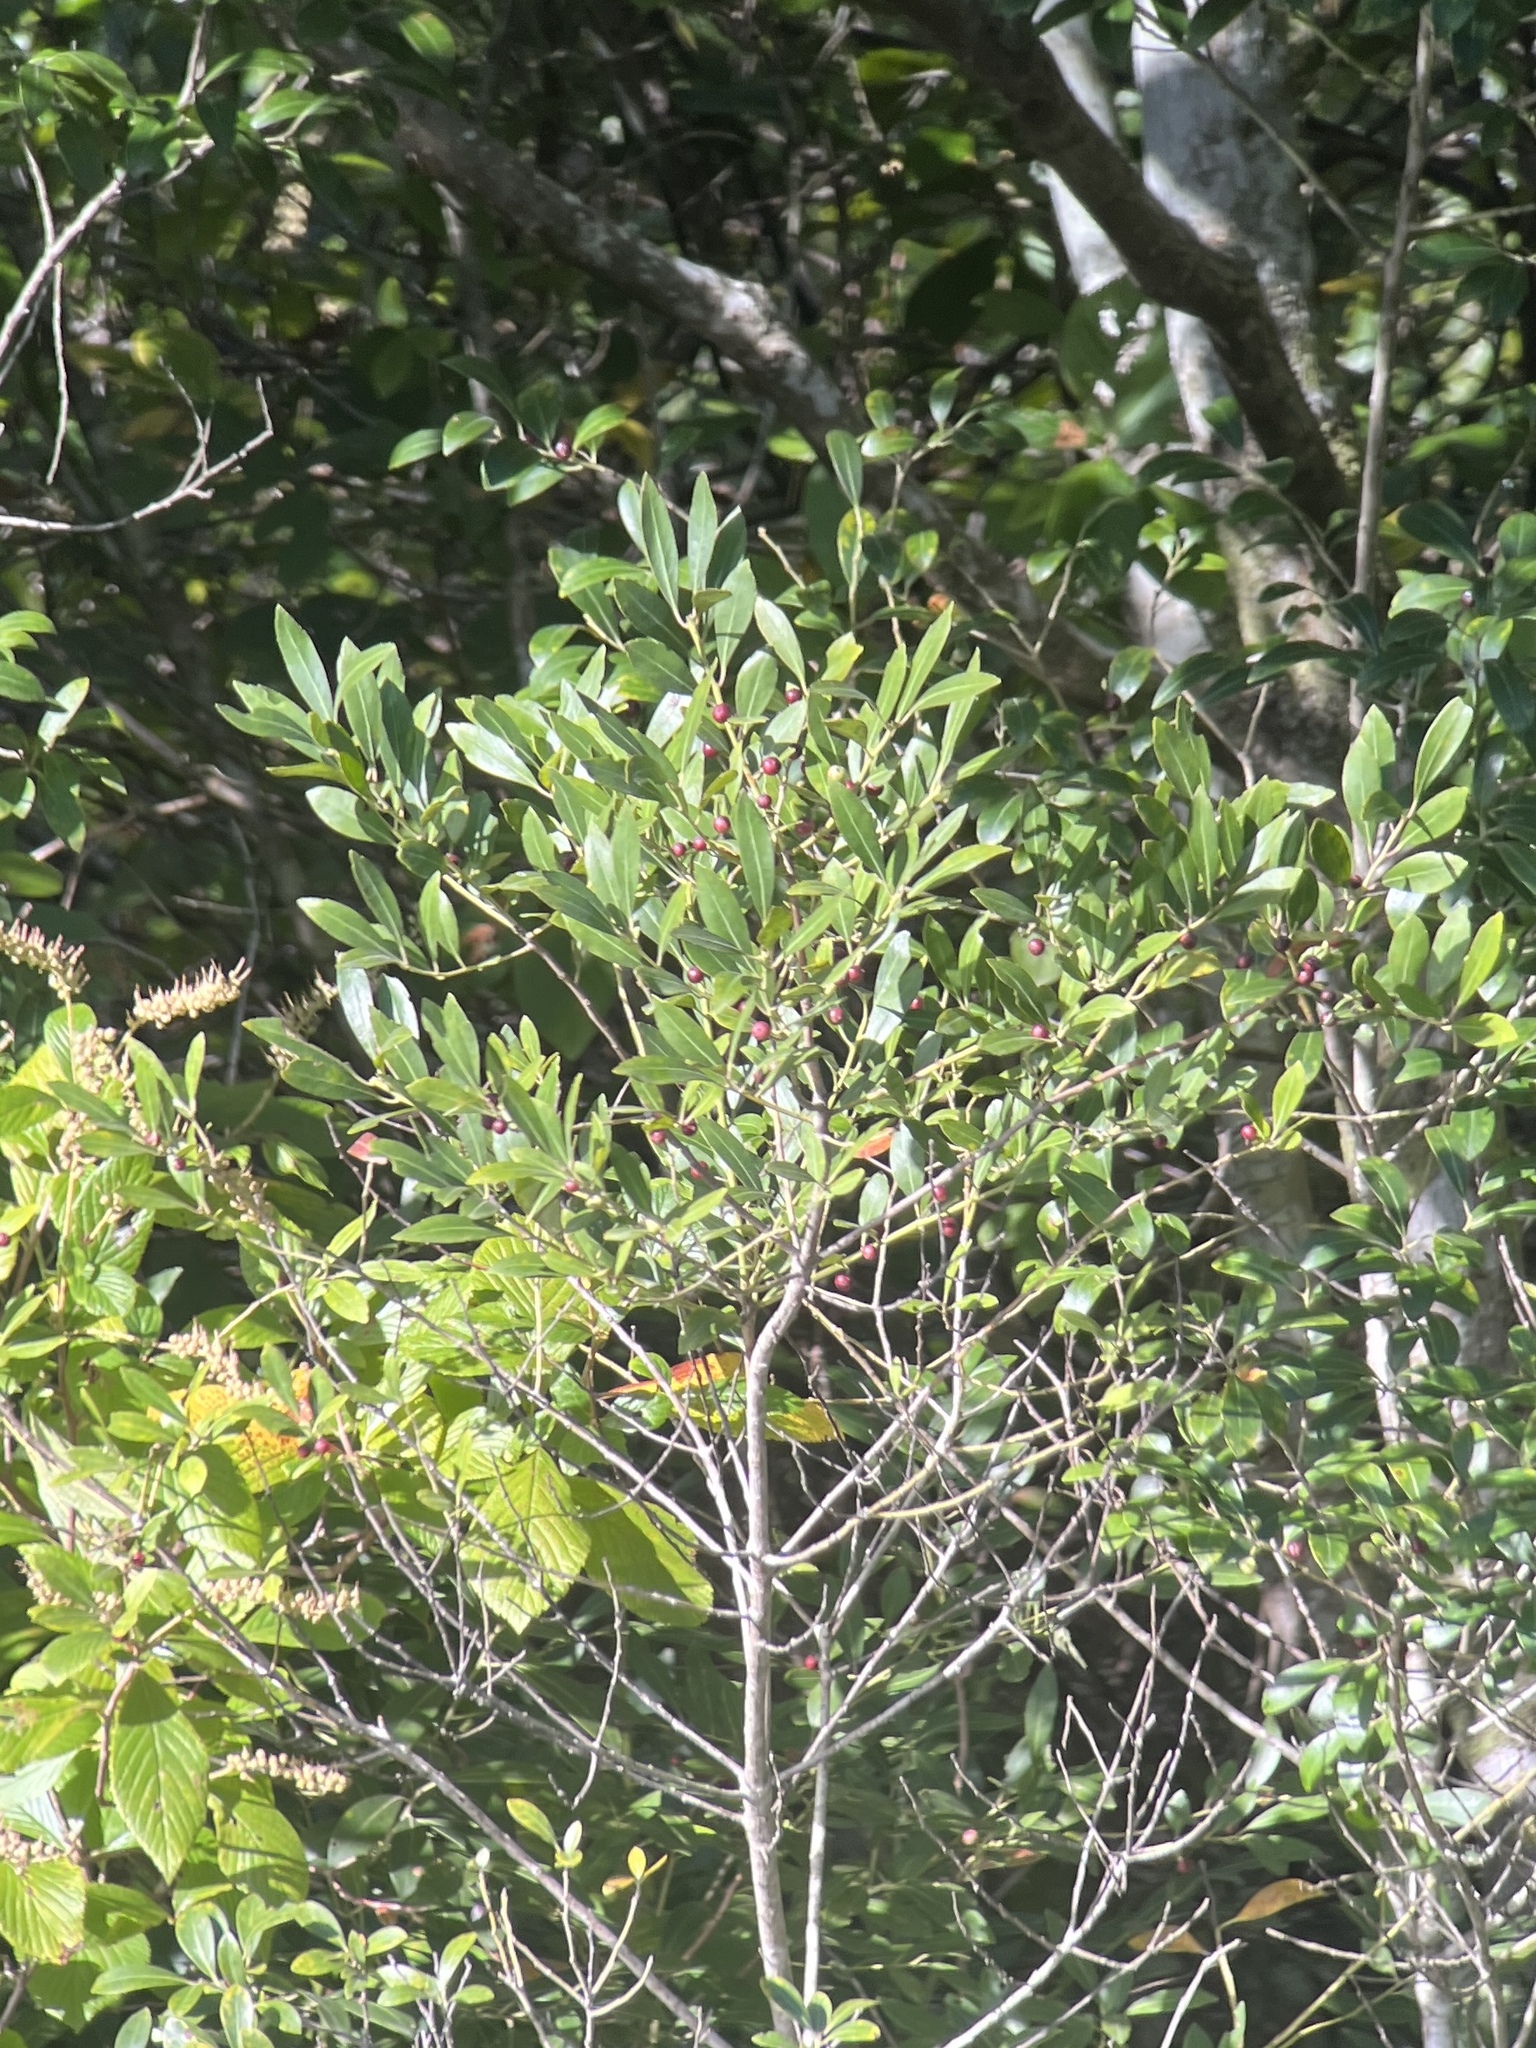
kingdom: Plantae
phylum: Tracheophyta
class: Magnoliopsida
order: Aquifoliales
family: Aquifoliaceae
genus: Ilex
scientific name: Ilex glabra
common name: Bitter gallberry
